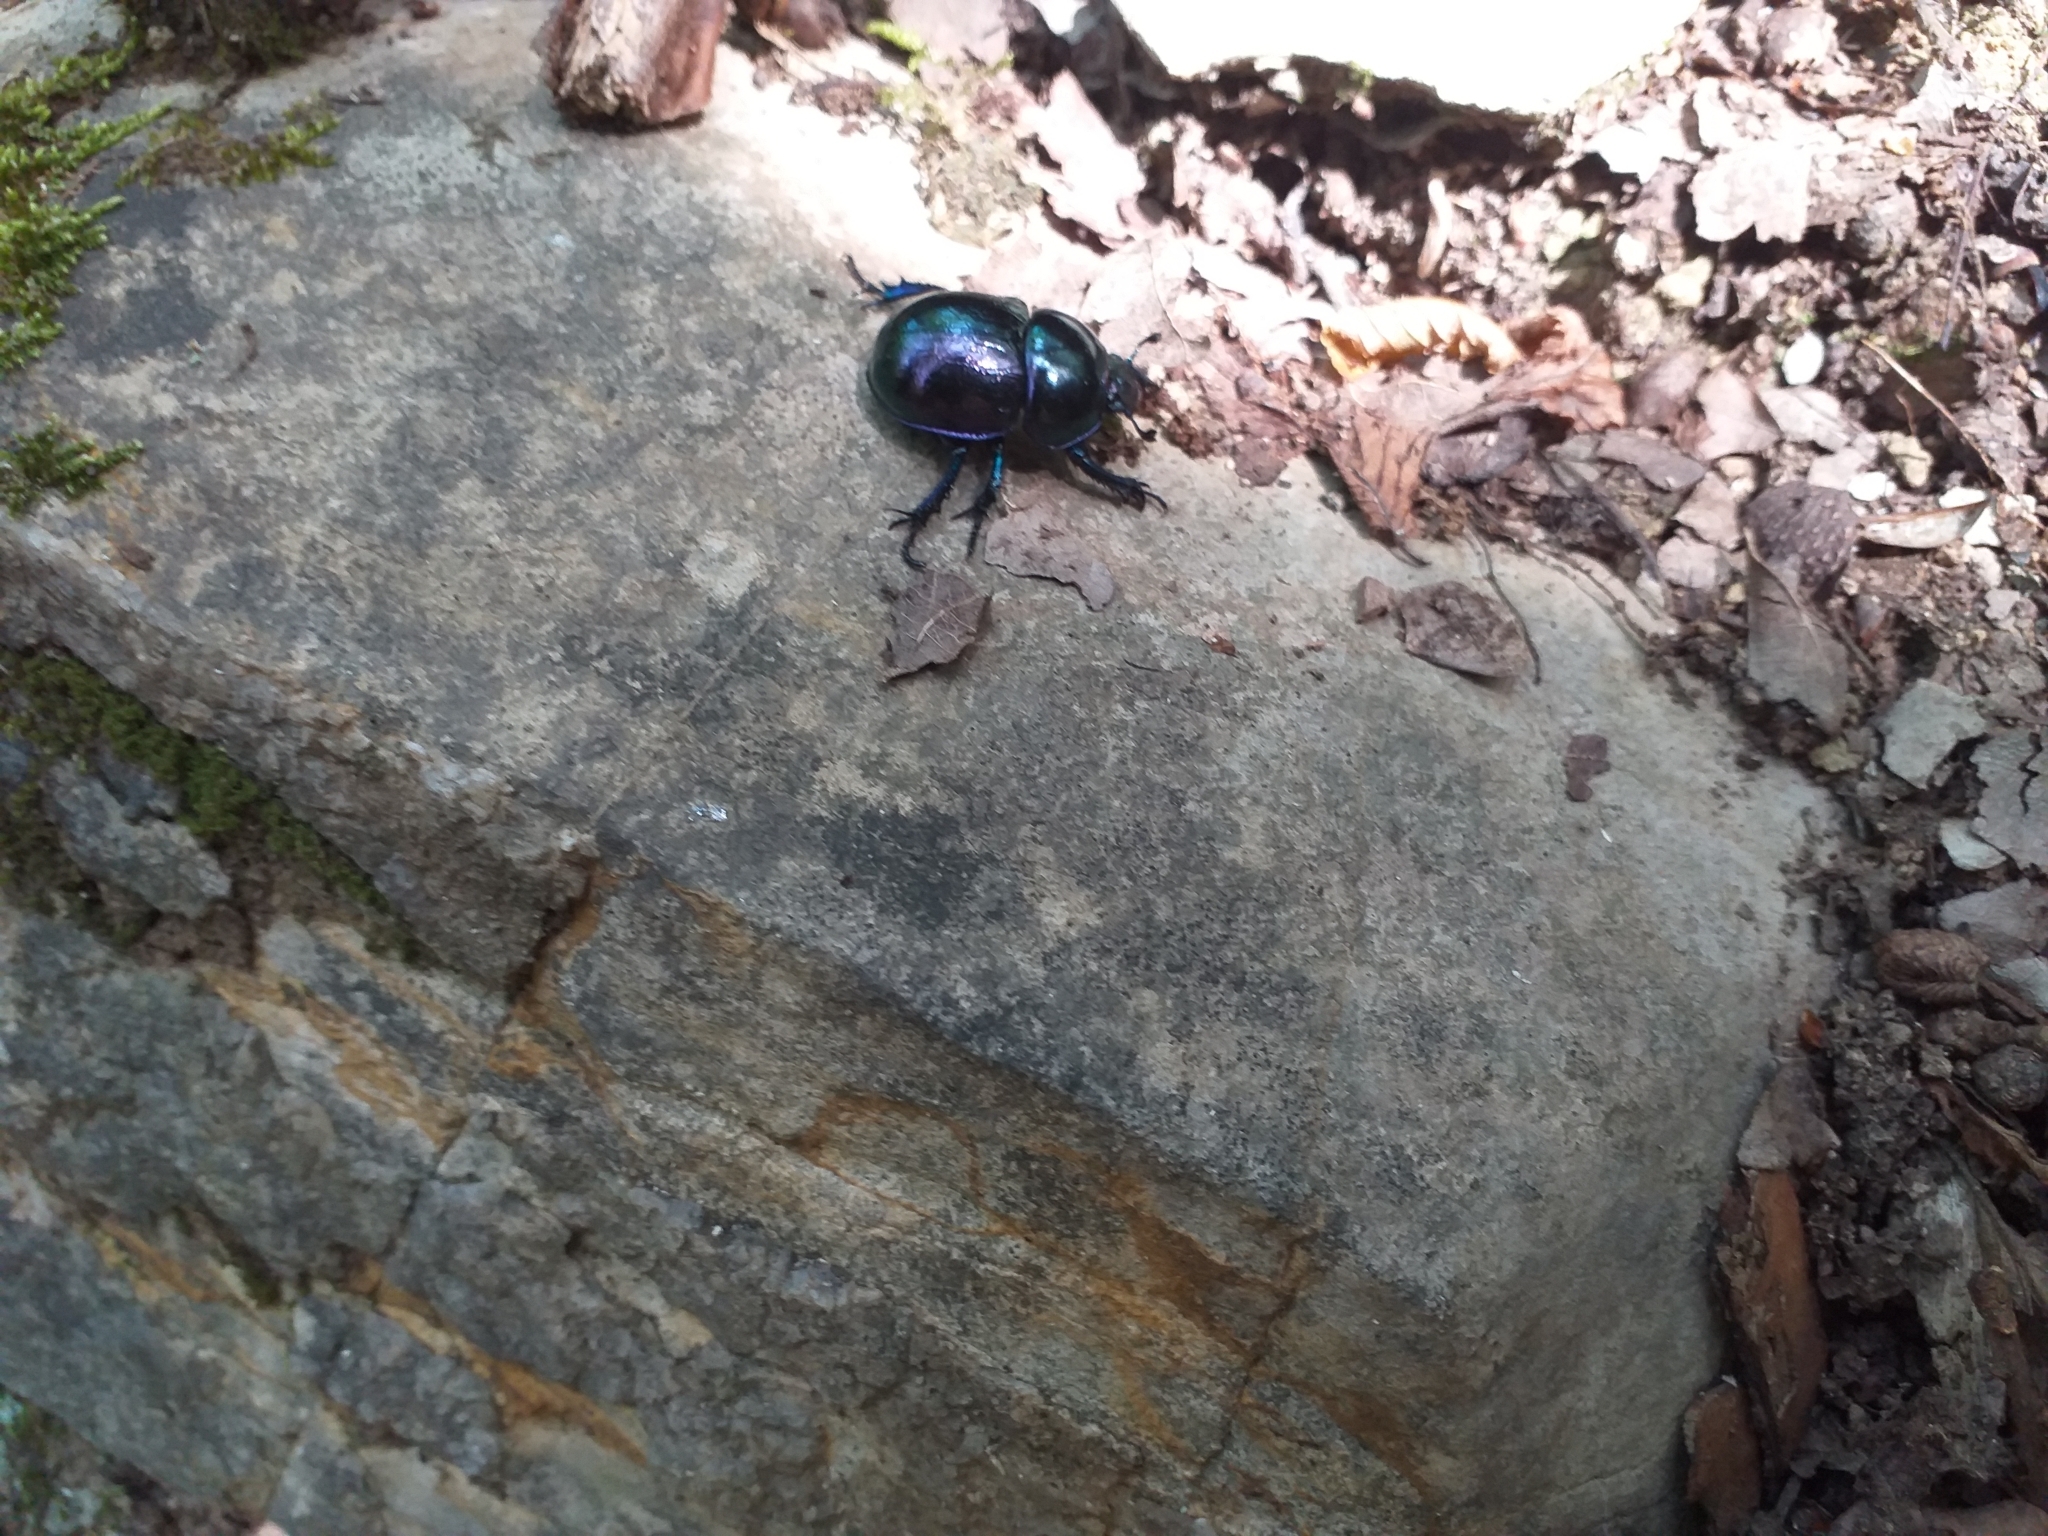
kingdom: Animalia
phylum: Arthropoda
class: Insecta
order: Coleoptera
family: Geotrupidae
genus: Trypocopris
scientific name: Trypocopris pyrenaeus
